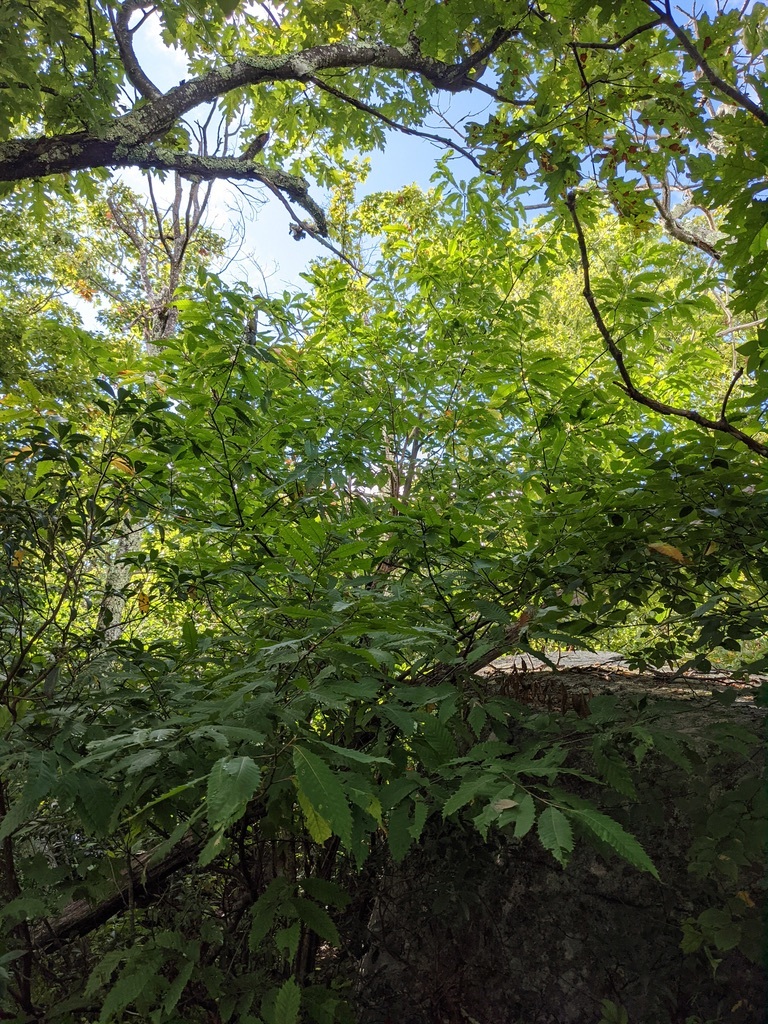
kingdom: Plantae
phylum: Tracheophyta
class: Magnoliopsida
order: Fagales
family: Fagaceae
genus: Castanea
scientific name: Castanea dentata
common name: American chestnut
